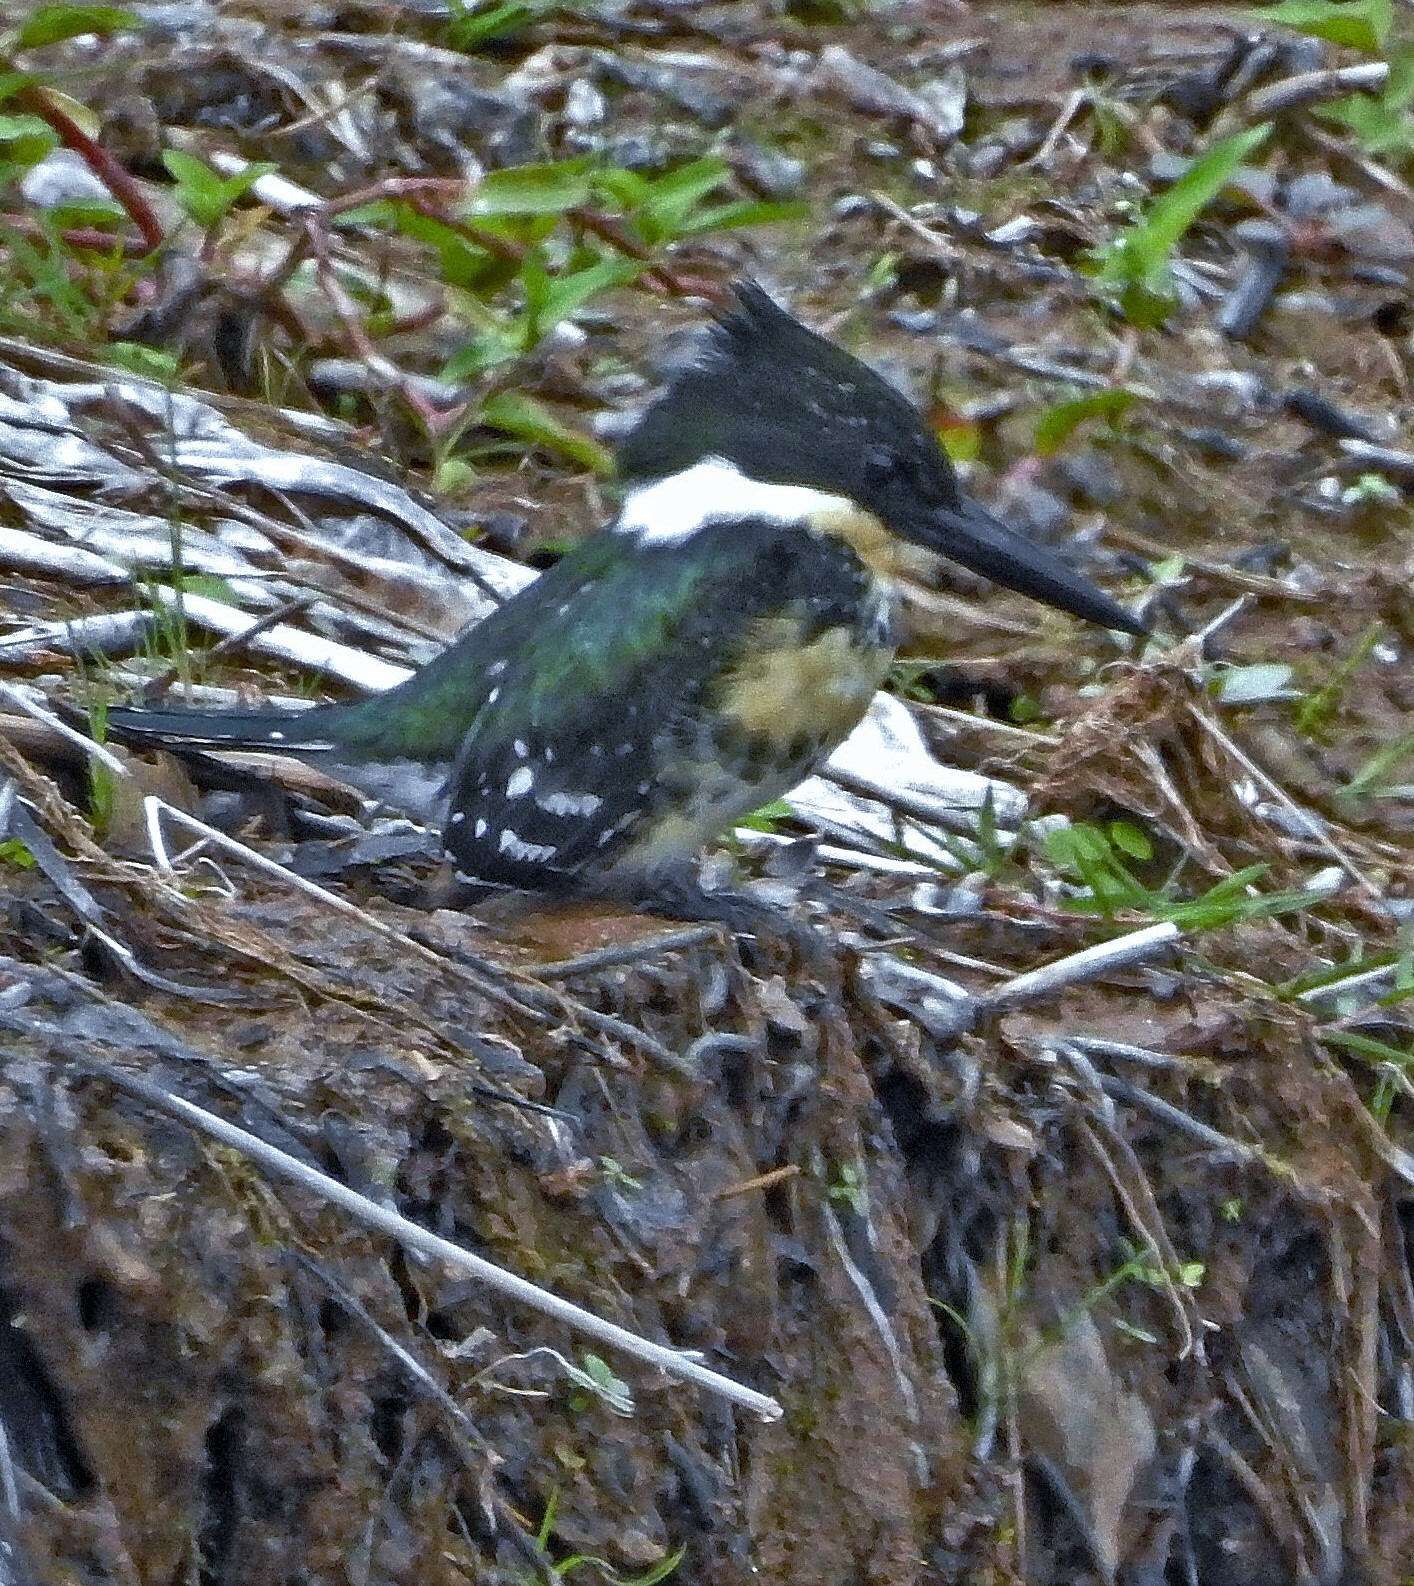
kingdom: Animalia
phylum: Chordata
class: Aves
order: Coraciiformes
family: Alcedinidae
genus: Chloroceryle
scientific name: Chloroceryle americana
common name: Green kingfisher
